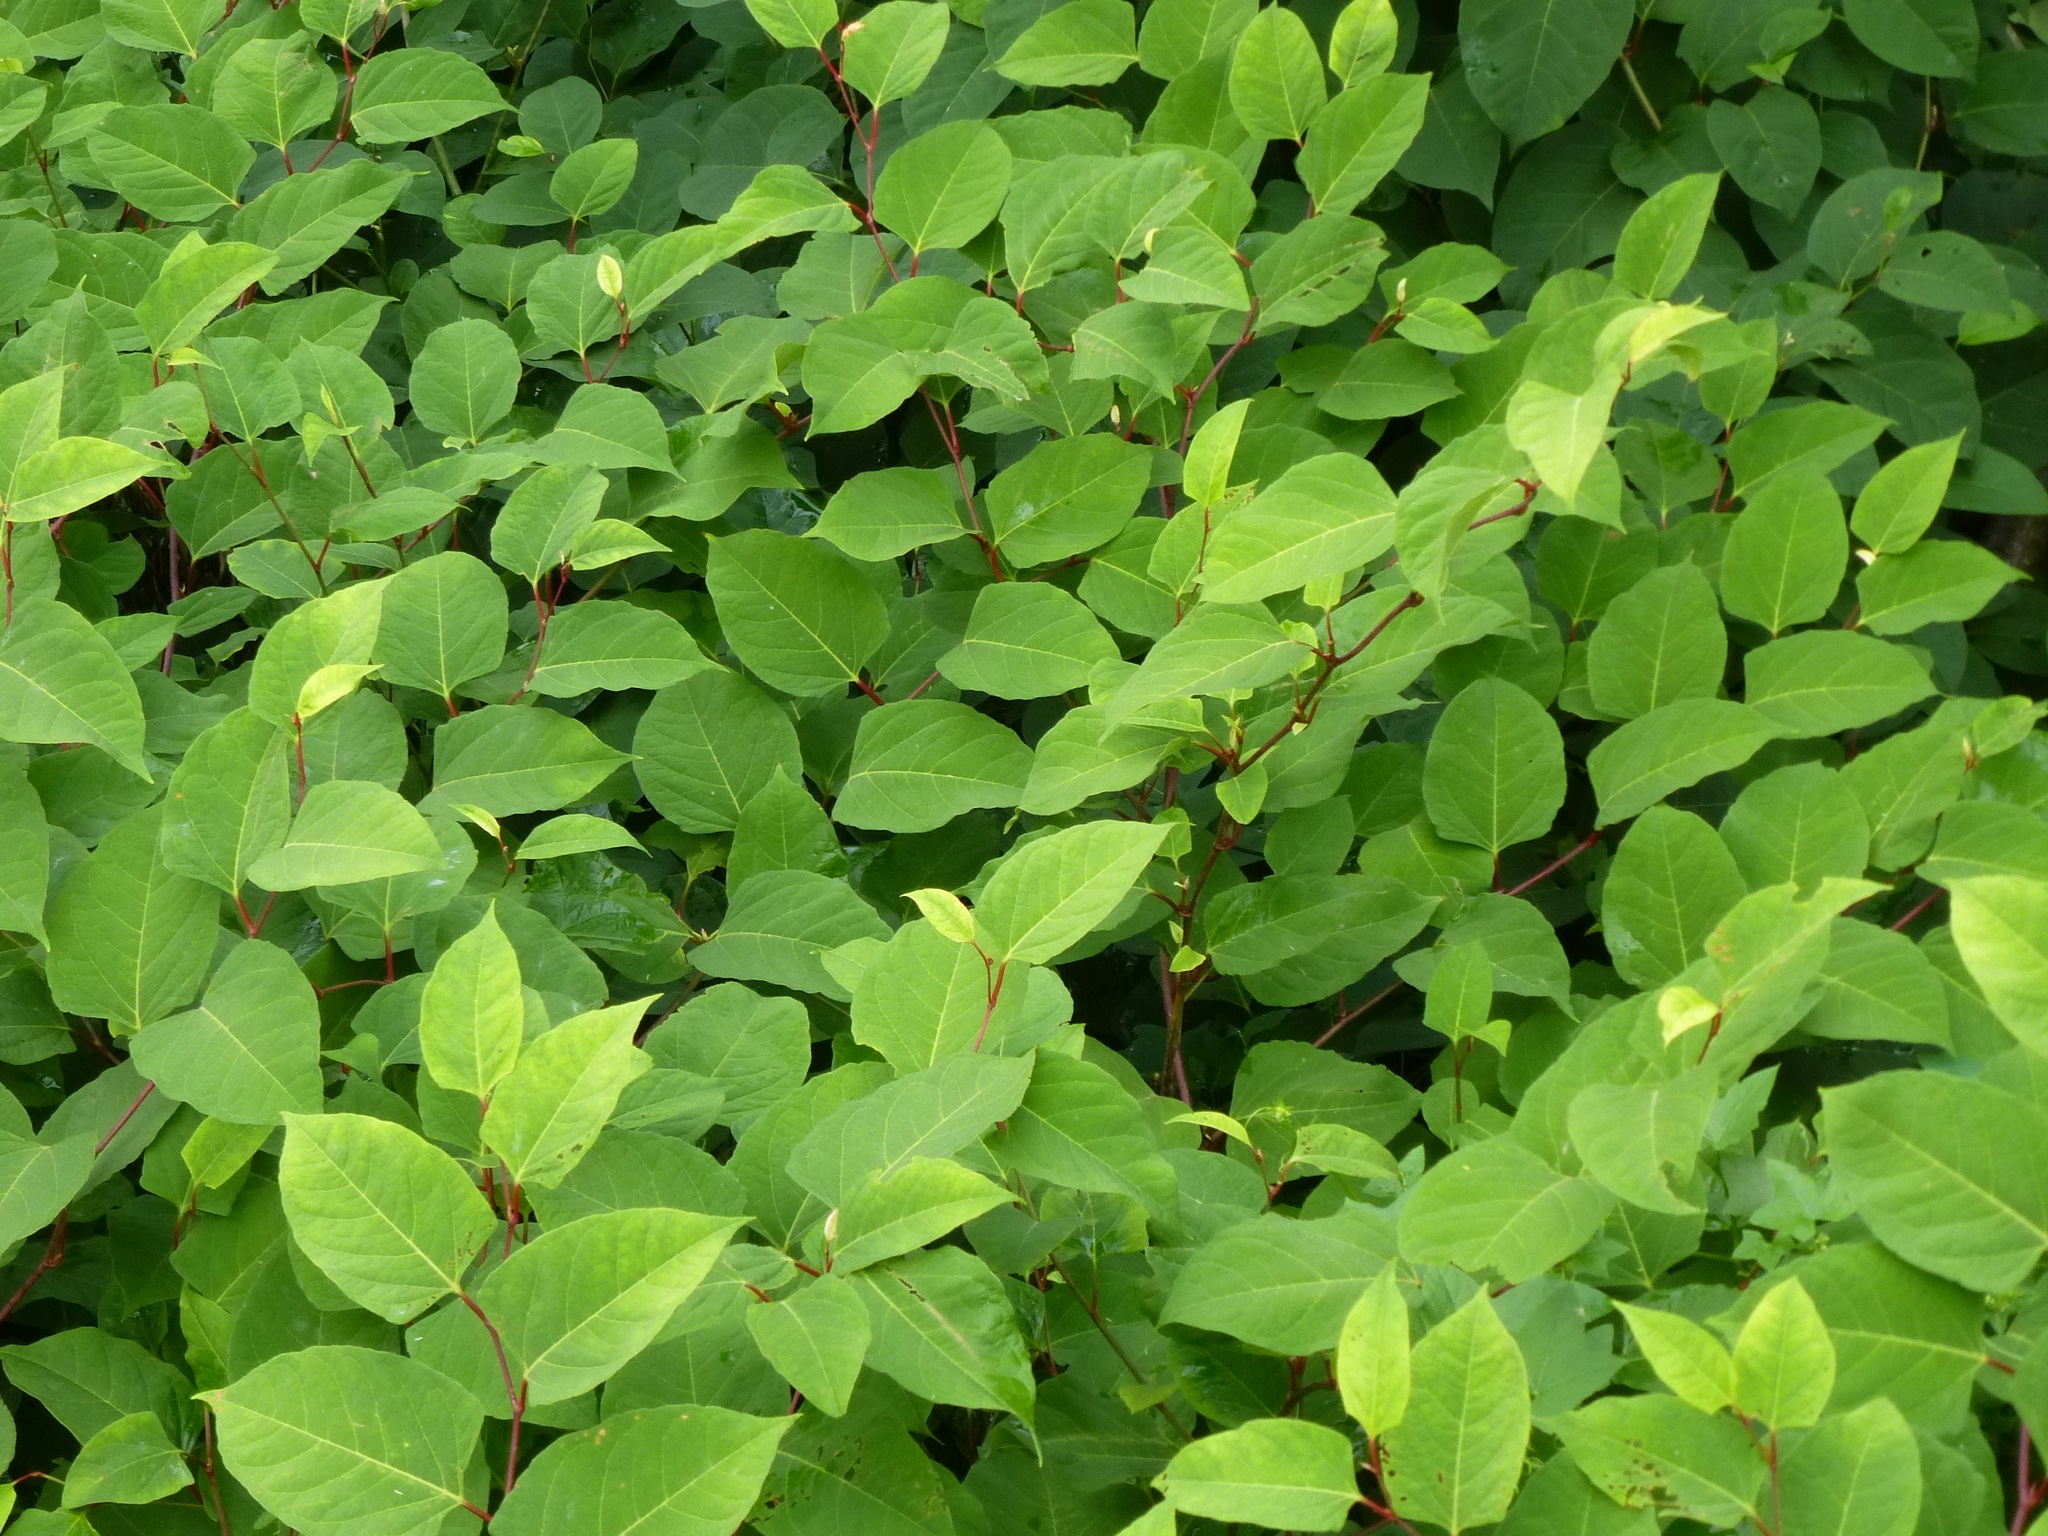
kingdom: Plantae
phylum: Tracheophyta
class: Magnoliopsida
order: Caryophyllales
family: Polygonaceae
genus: Reynoutria
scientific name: Reynoutria
